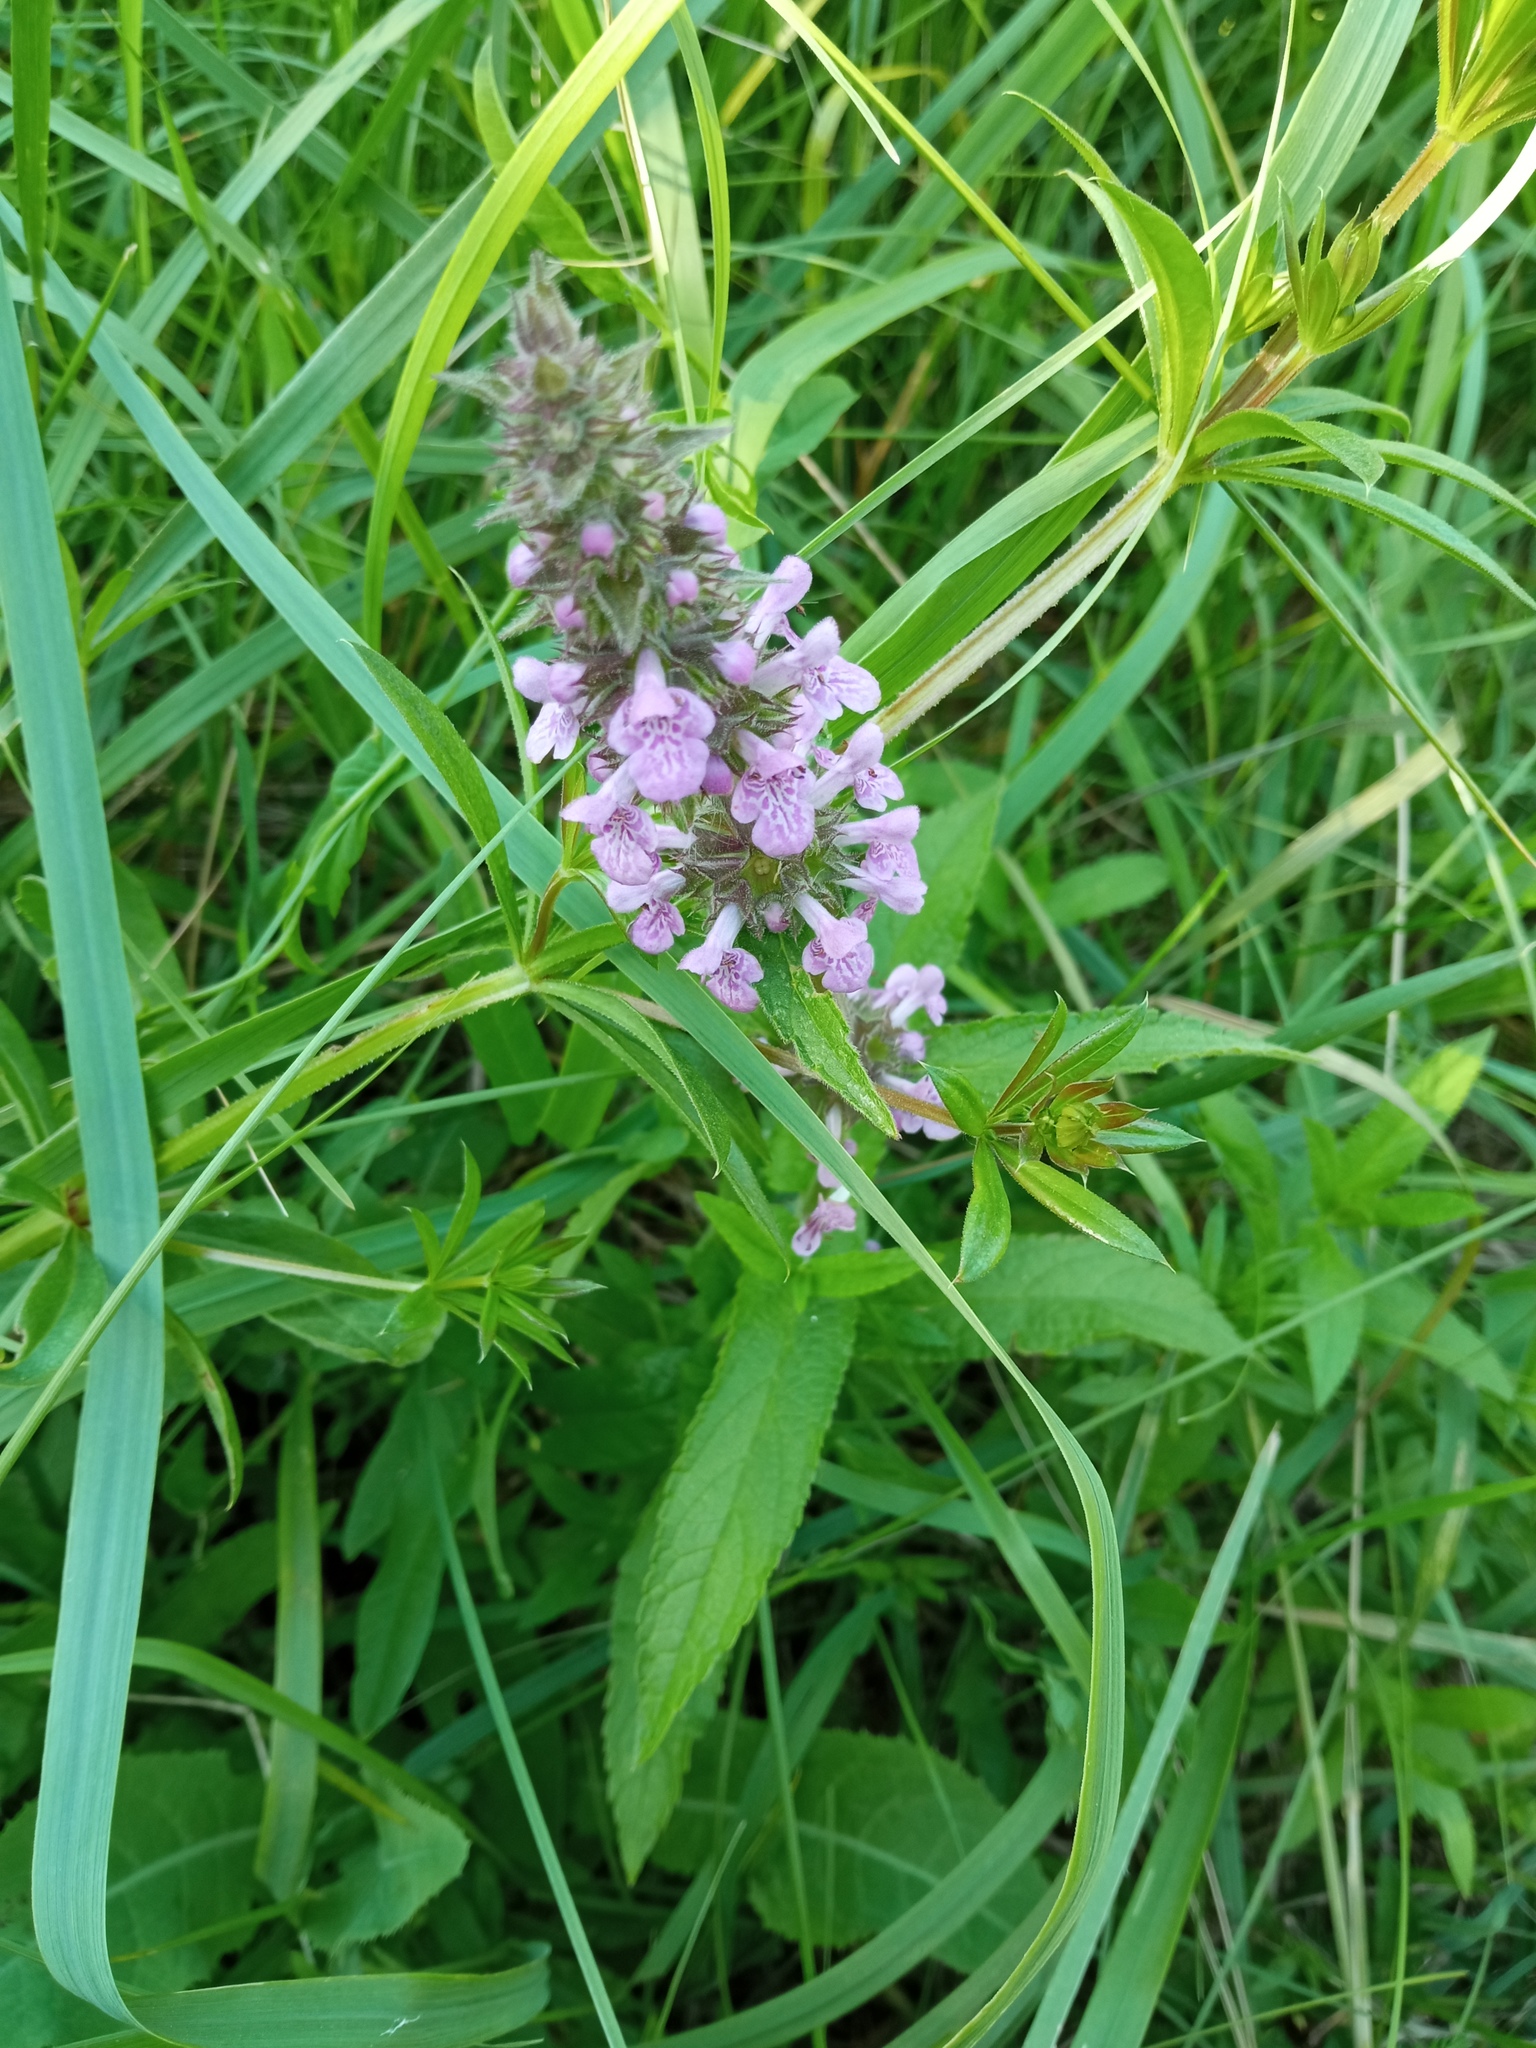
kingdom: Plantae
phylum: Tracheophyta
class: Magnoliopsida
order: Lamiales
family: Lamiaceae
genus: Stachys
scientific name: Stachys palustris
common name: Marsh woundwort
